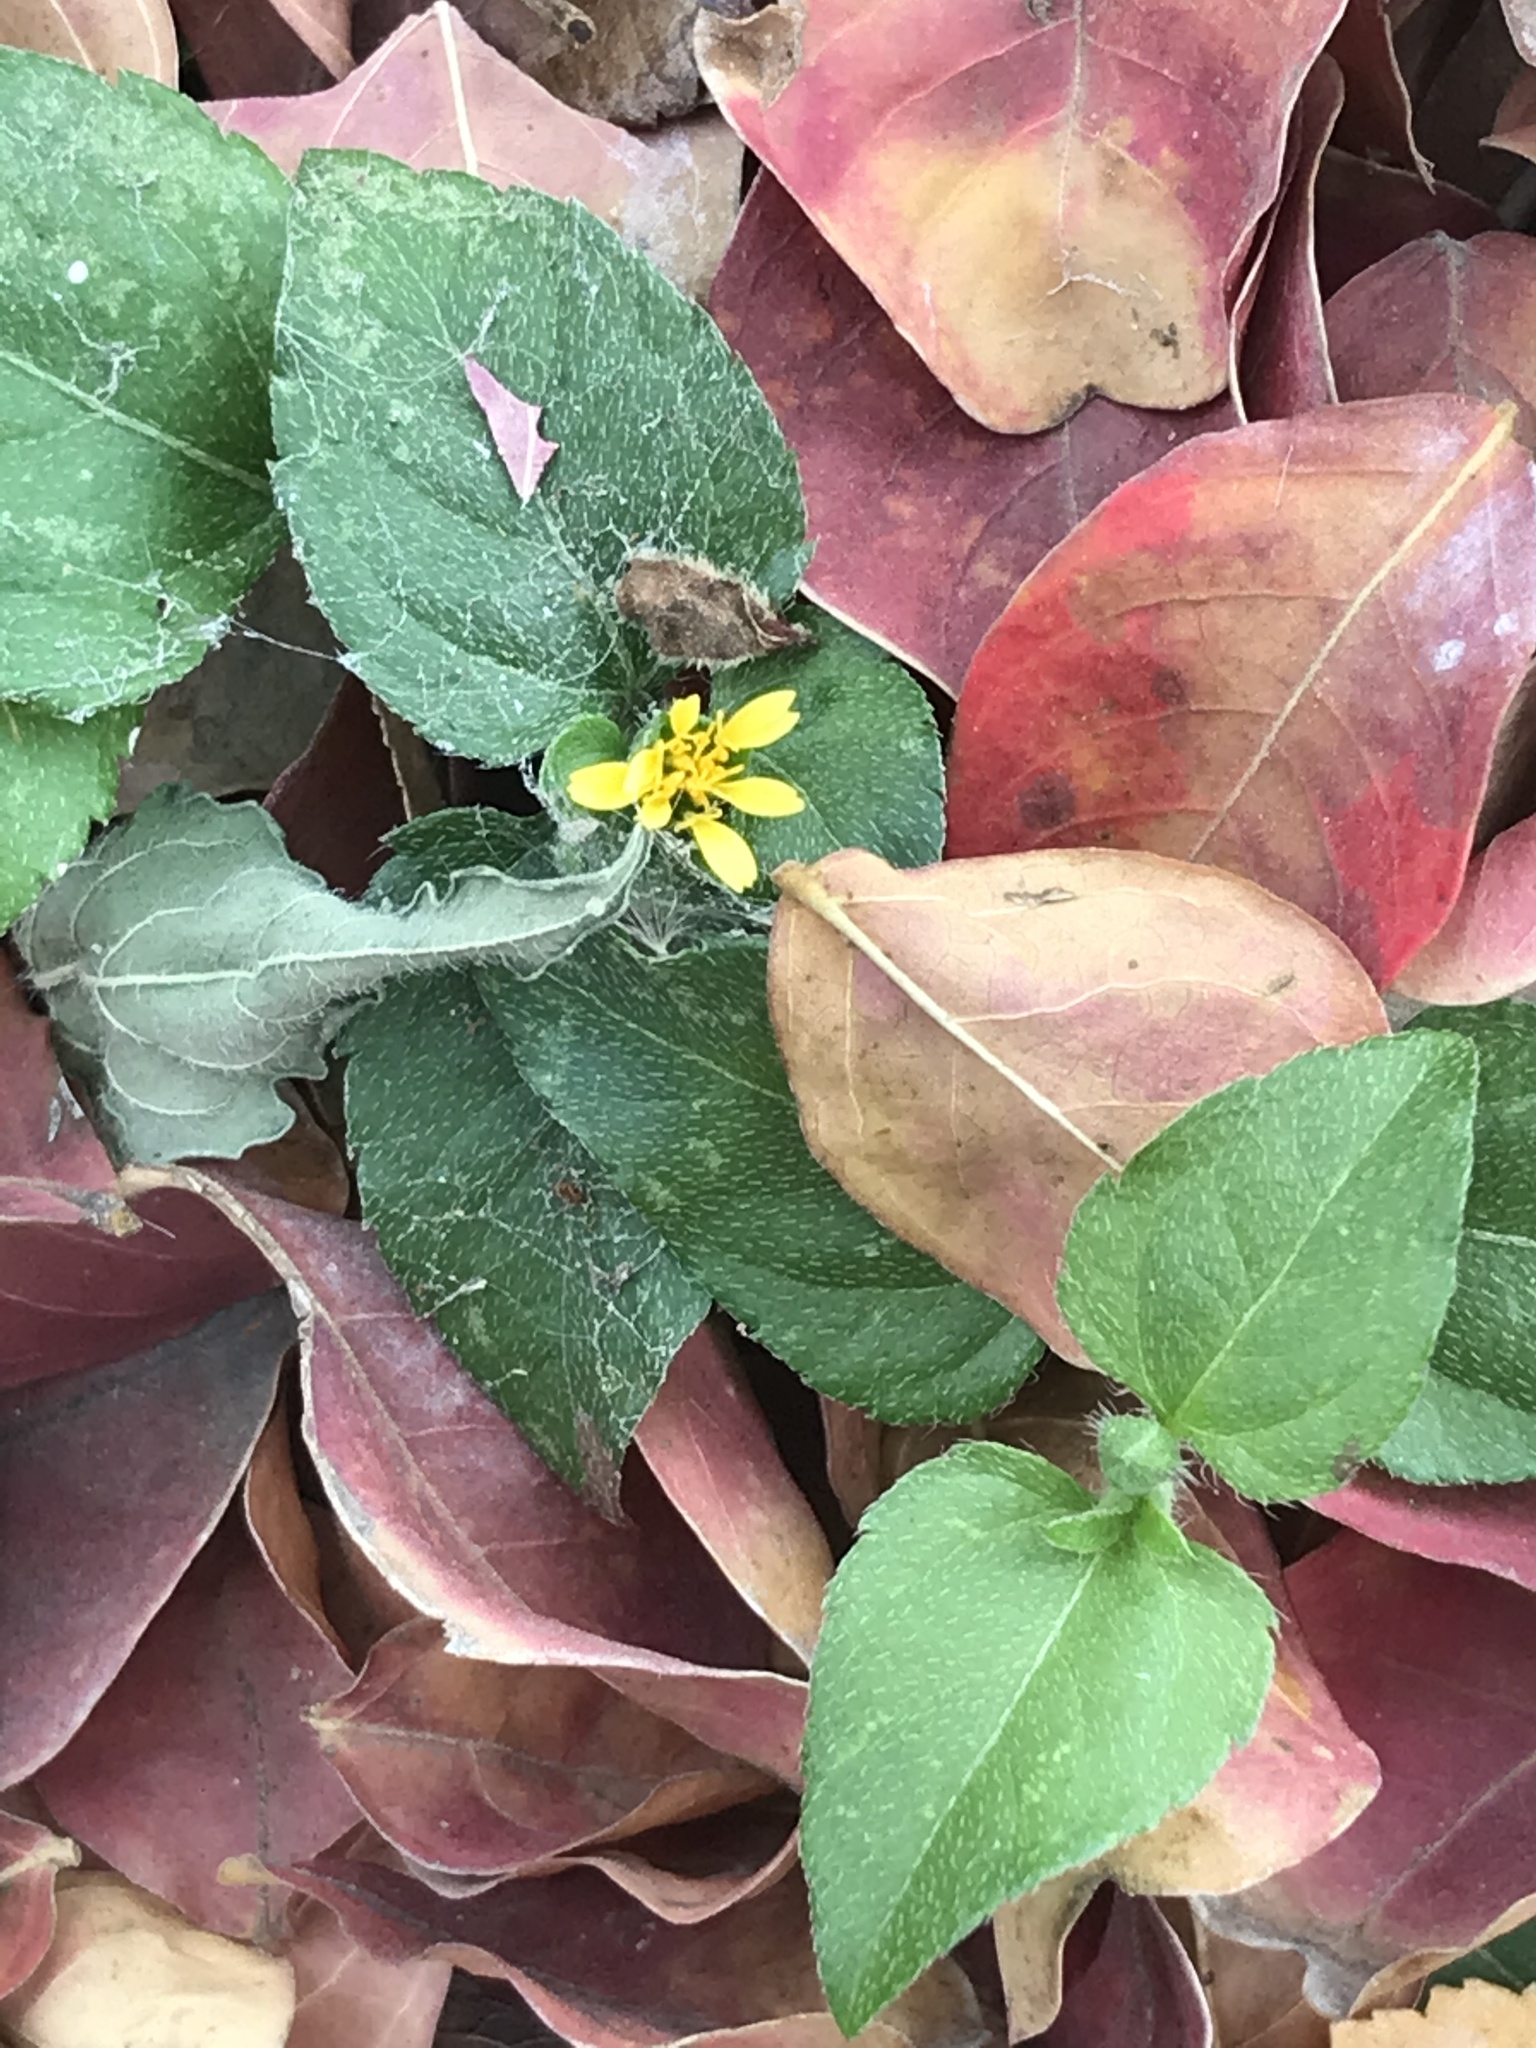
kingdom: Plantae
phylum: Tracheophyta
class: Magnoliopsida
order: Asterales
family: Asteraceae
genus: Calyptocarpus
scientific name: Calyptocarpus vialis
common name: Straggler daisy
